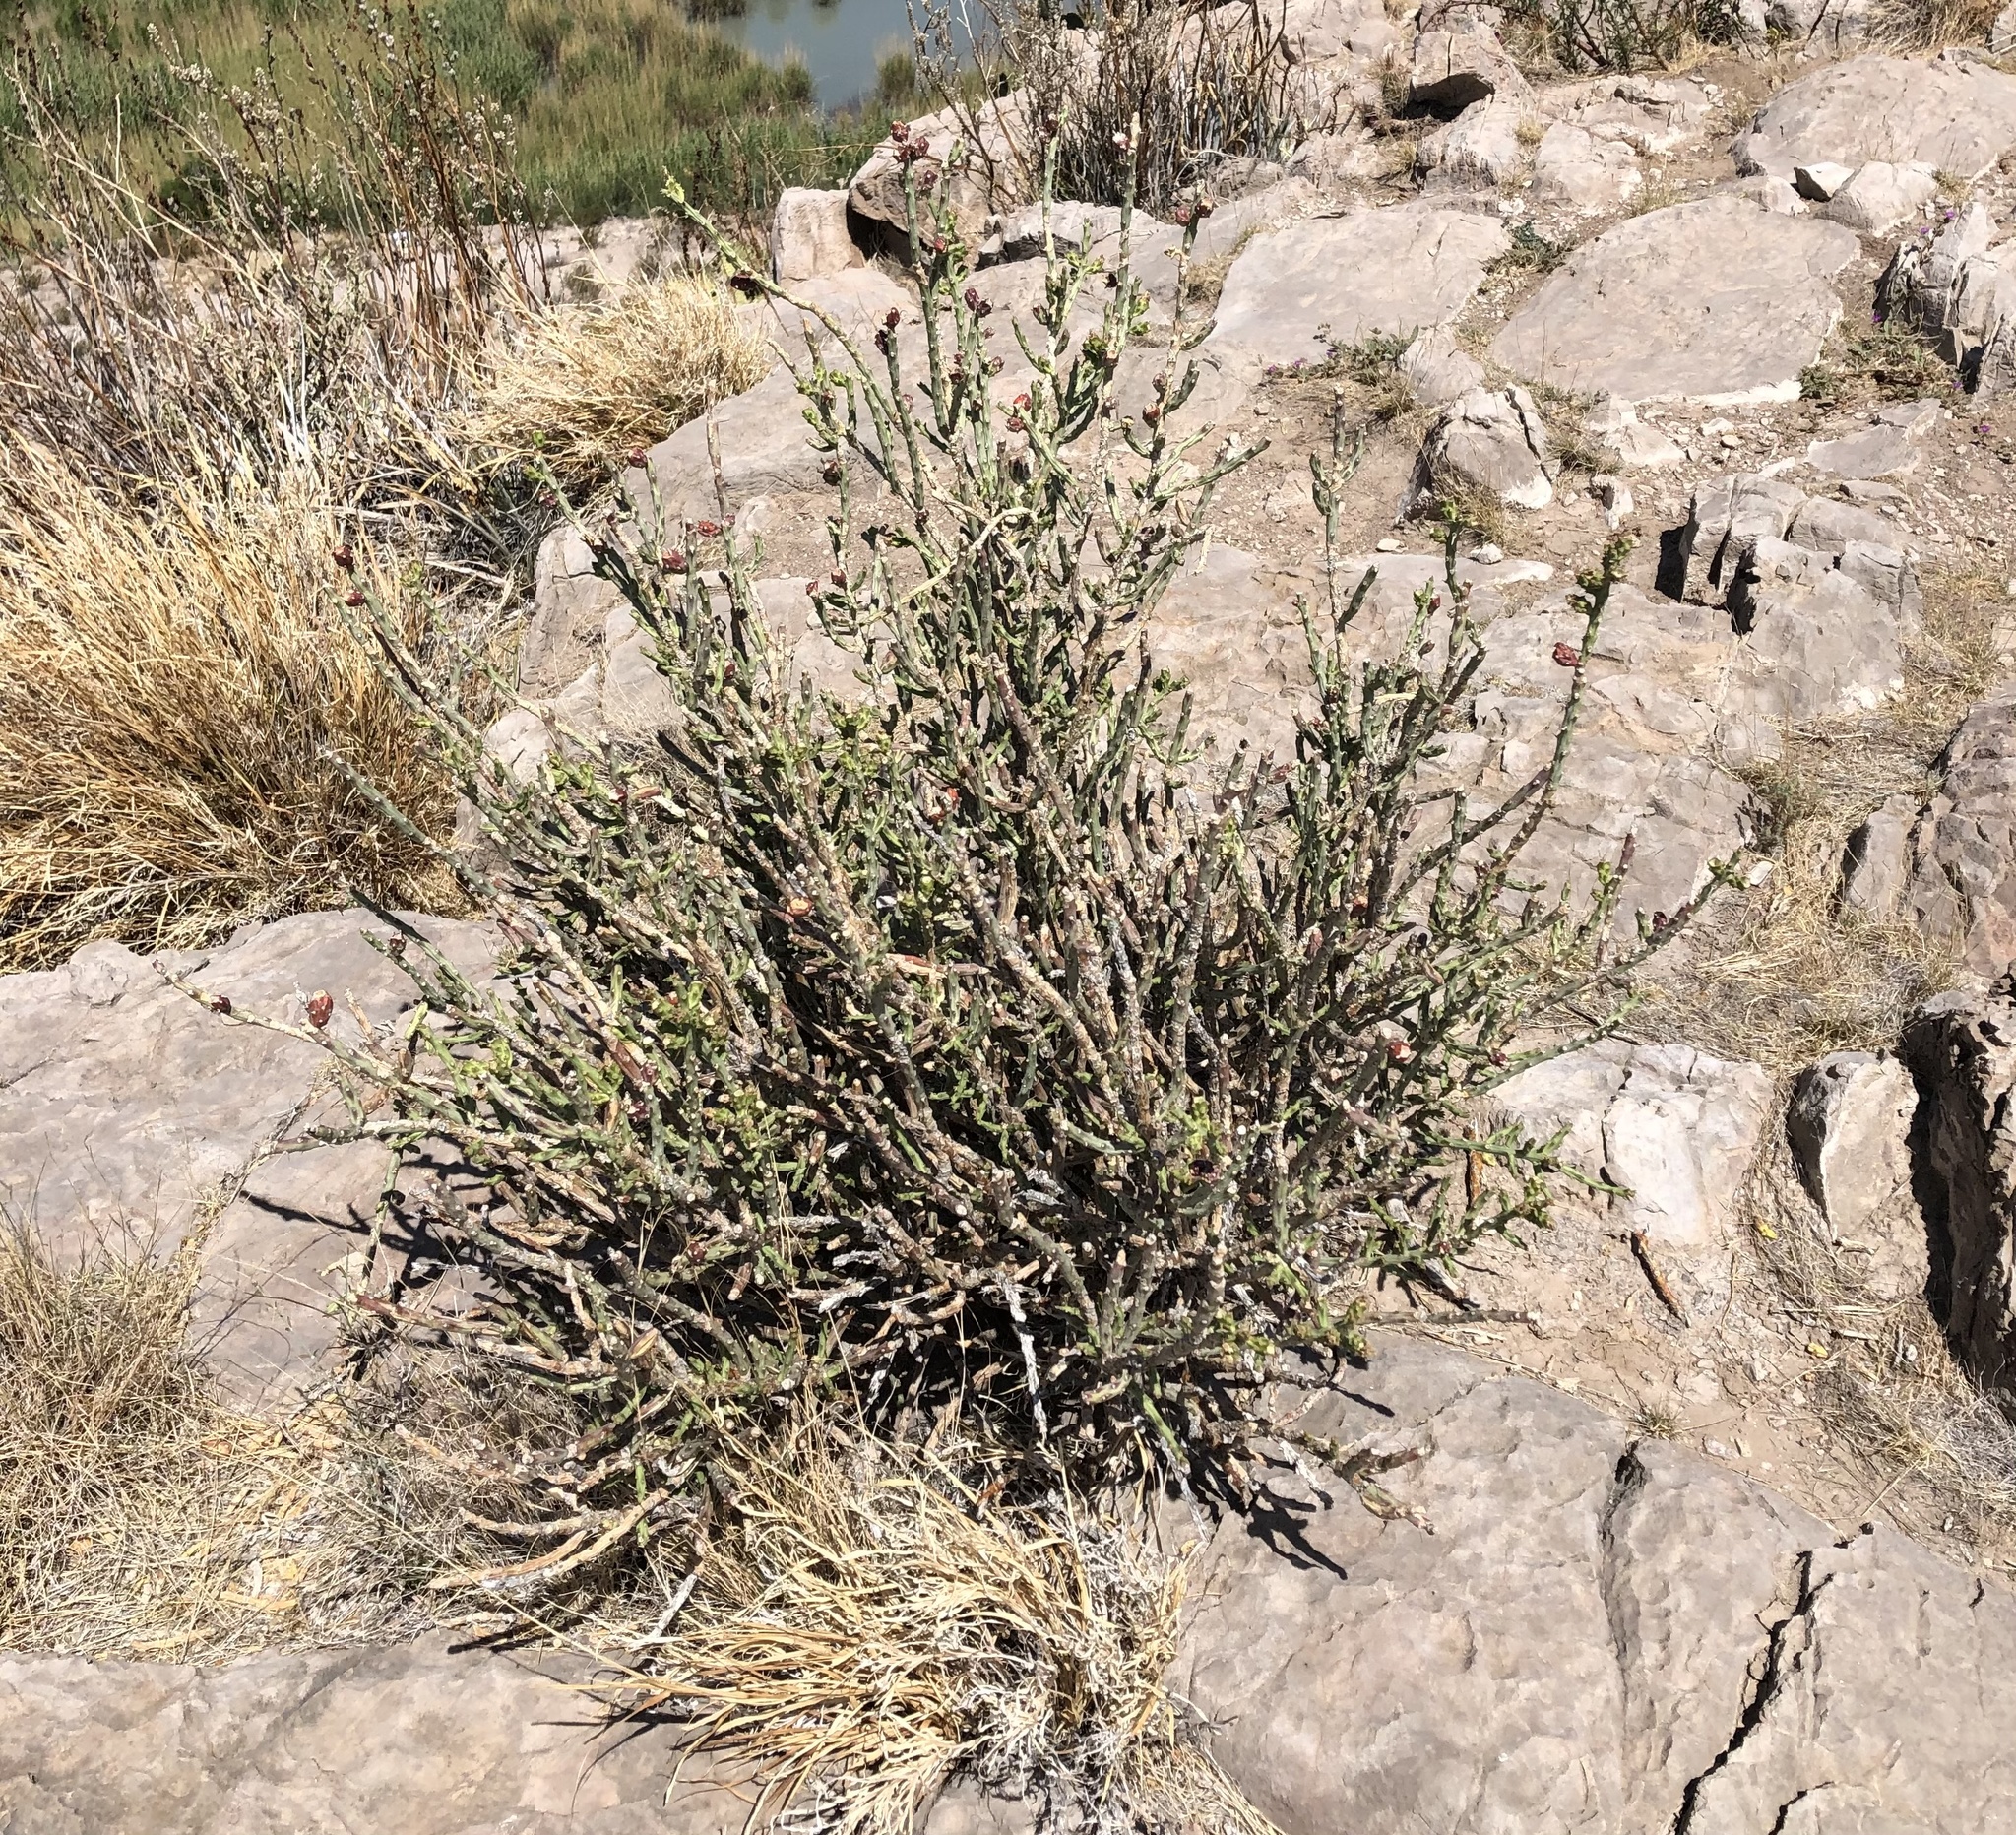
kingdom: Plantae
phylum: Tracheophyta
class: Magnoliopsida
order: Caryophyllales
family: Cactaceae
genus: Cylindropuntia
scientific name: Cylindropuntia leptocaulis
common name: Christmas cactus
